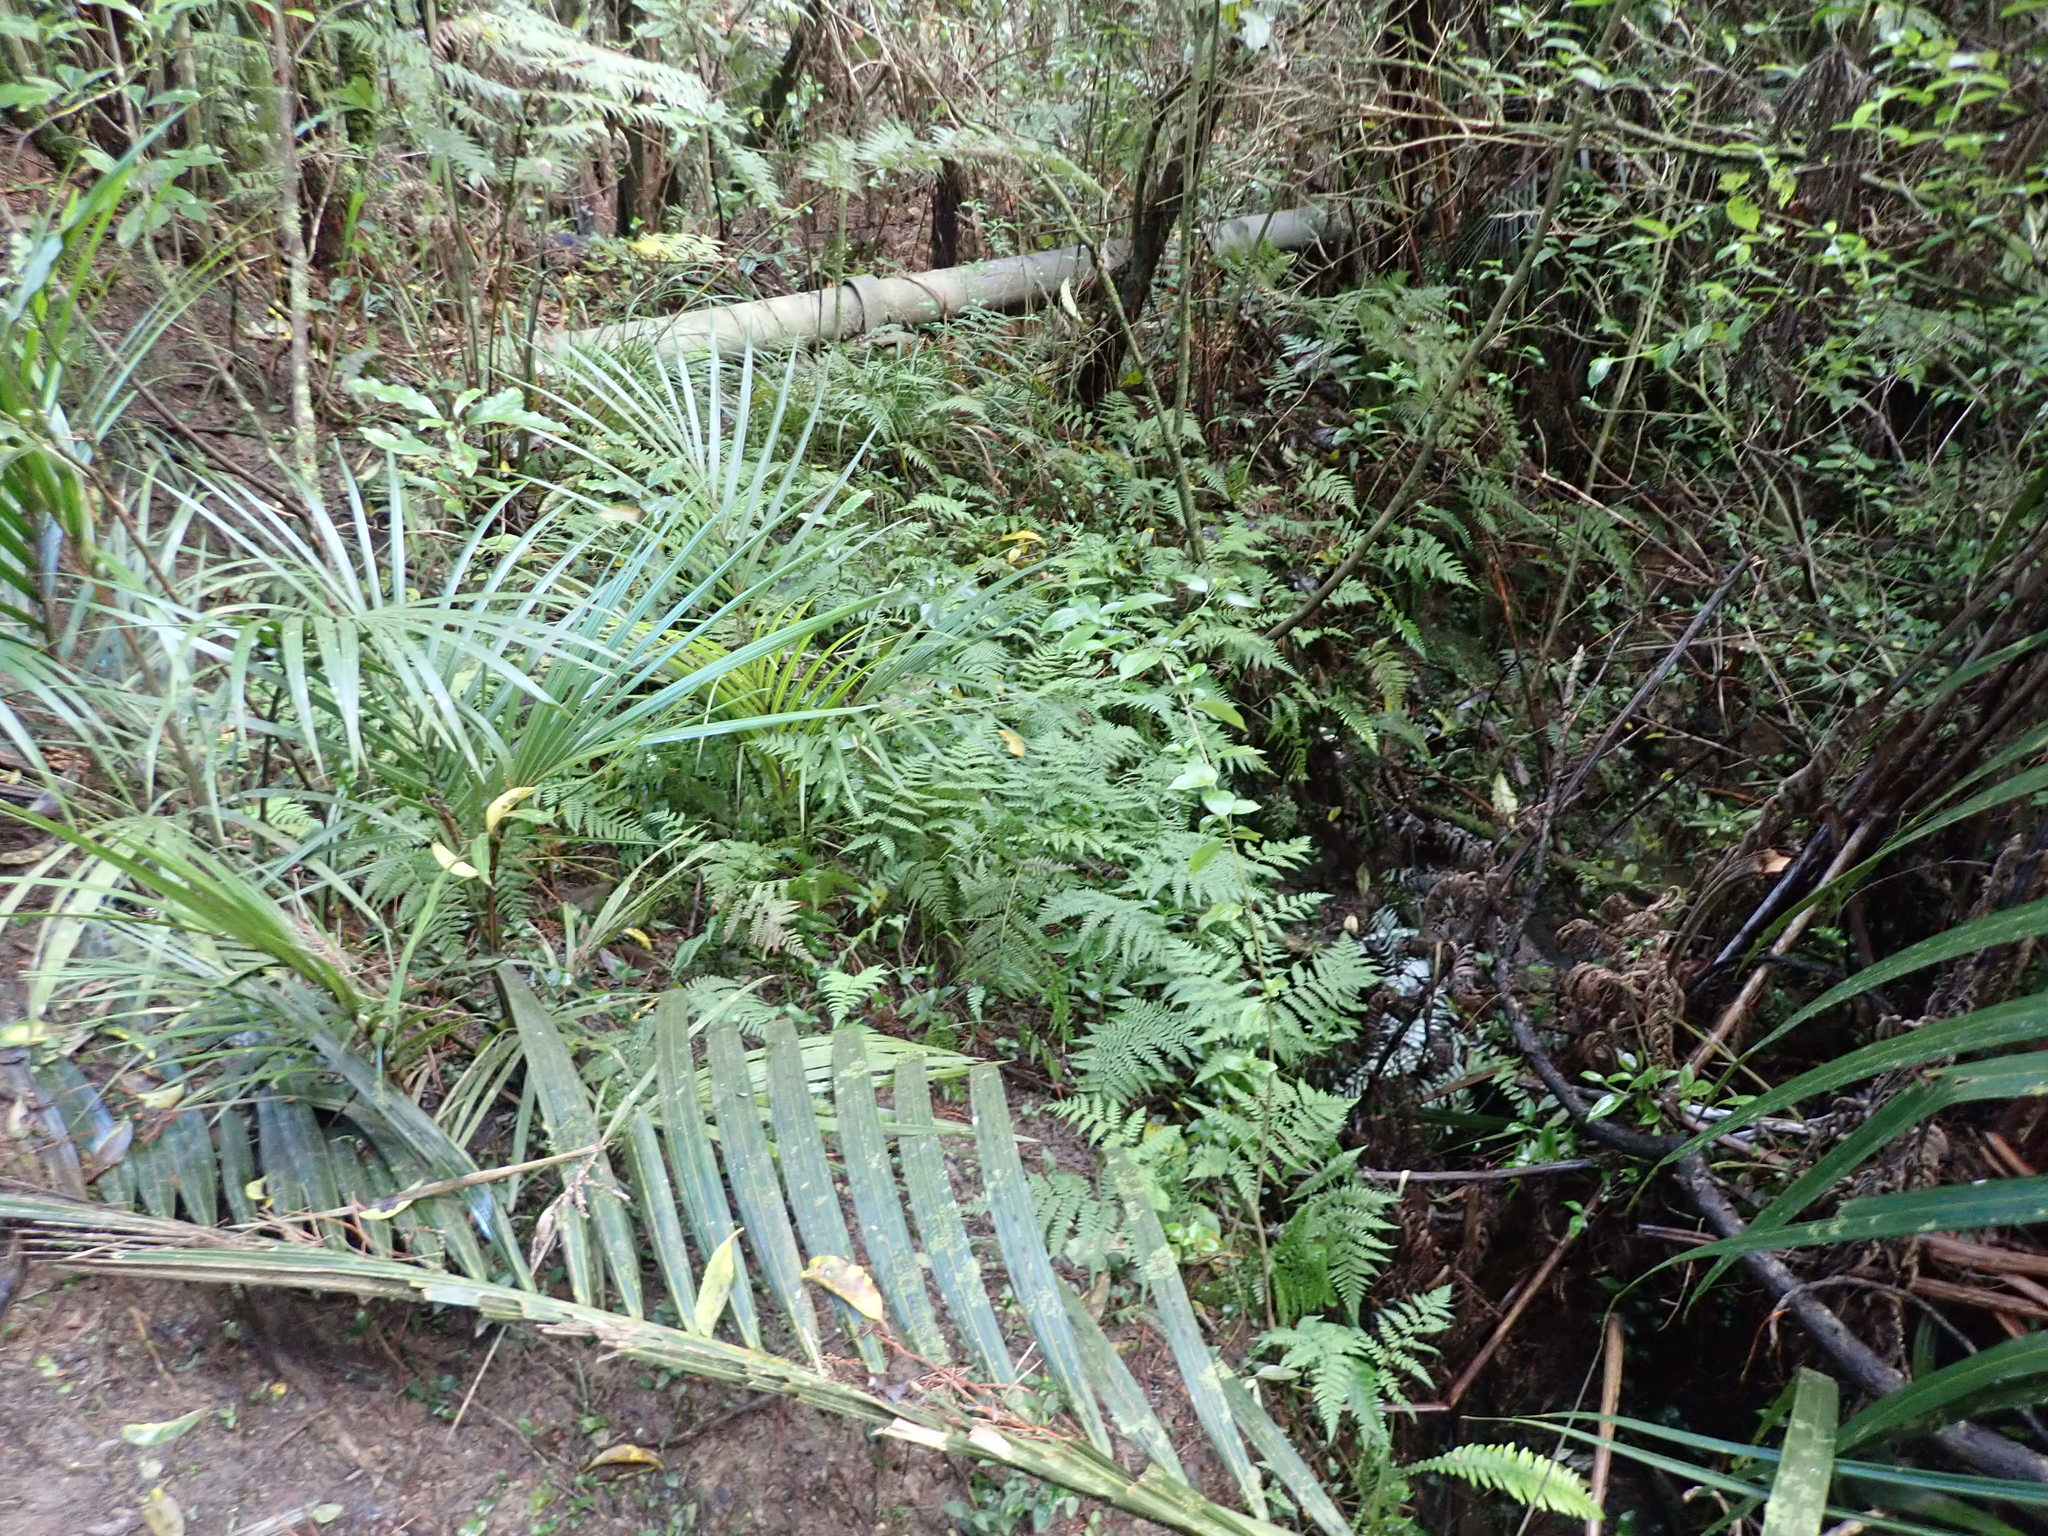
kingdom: Plantae
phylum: Tracheophyta
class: Liliopsida
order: Arecales
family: Arecaceae
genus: Rhopalostylis
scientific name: Rhopalostylis sapida
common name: Feather-duster palm
